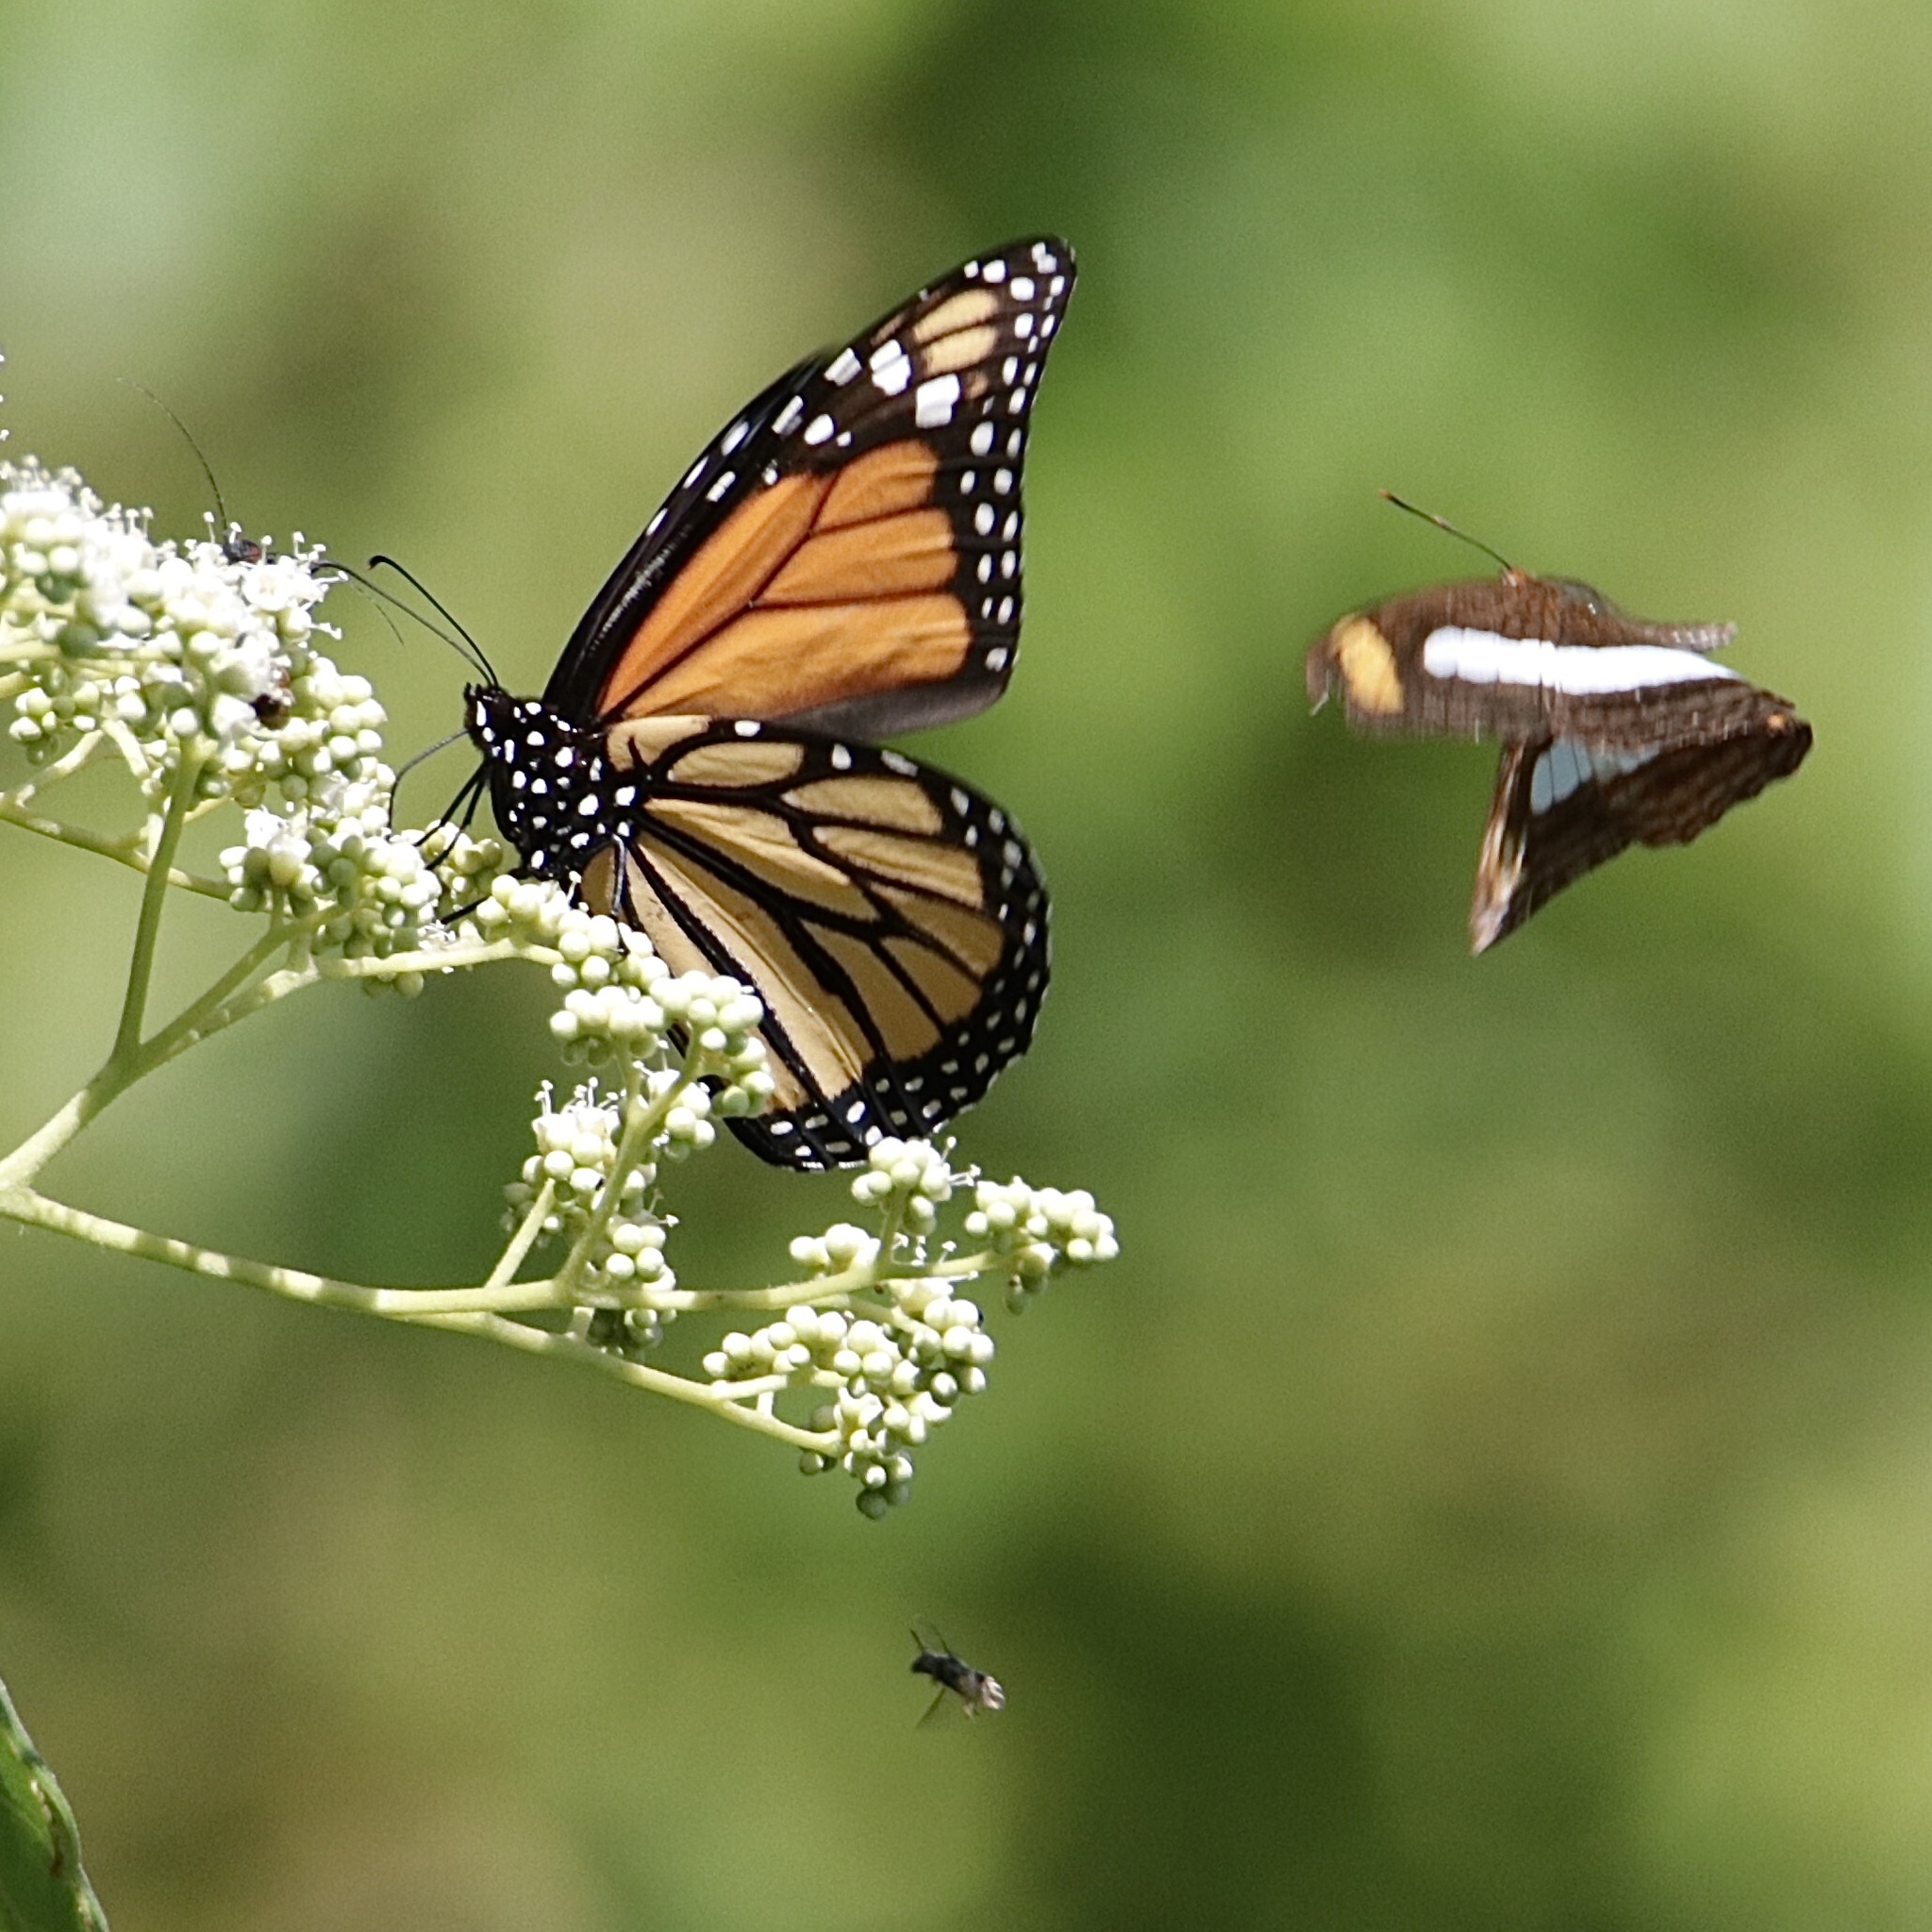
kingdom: Animalia
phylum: Arthropoda
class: Insecta
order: Lepidoptera
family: Nymphalidae
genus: Danaus
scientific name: Danaus plexippus
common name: Monarch
